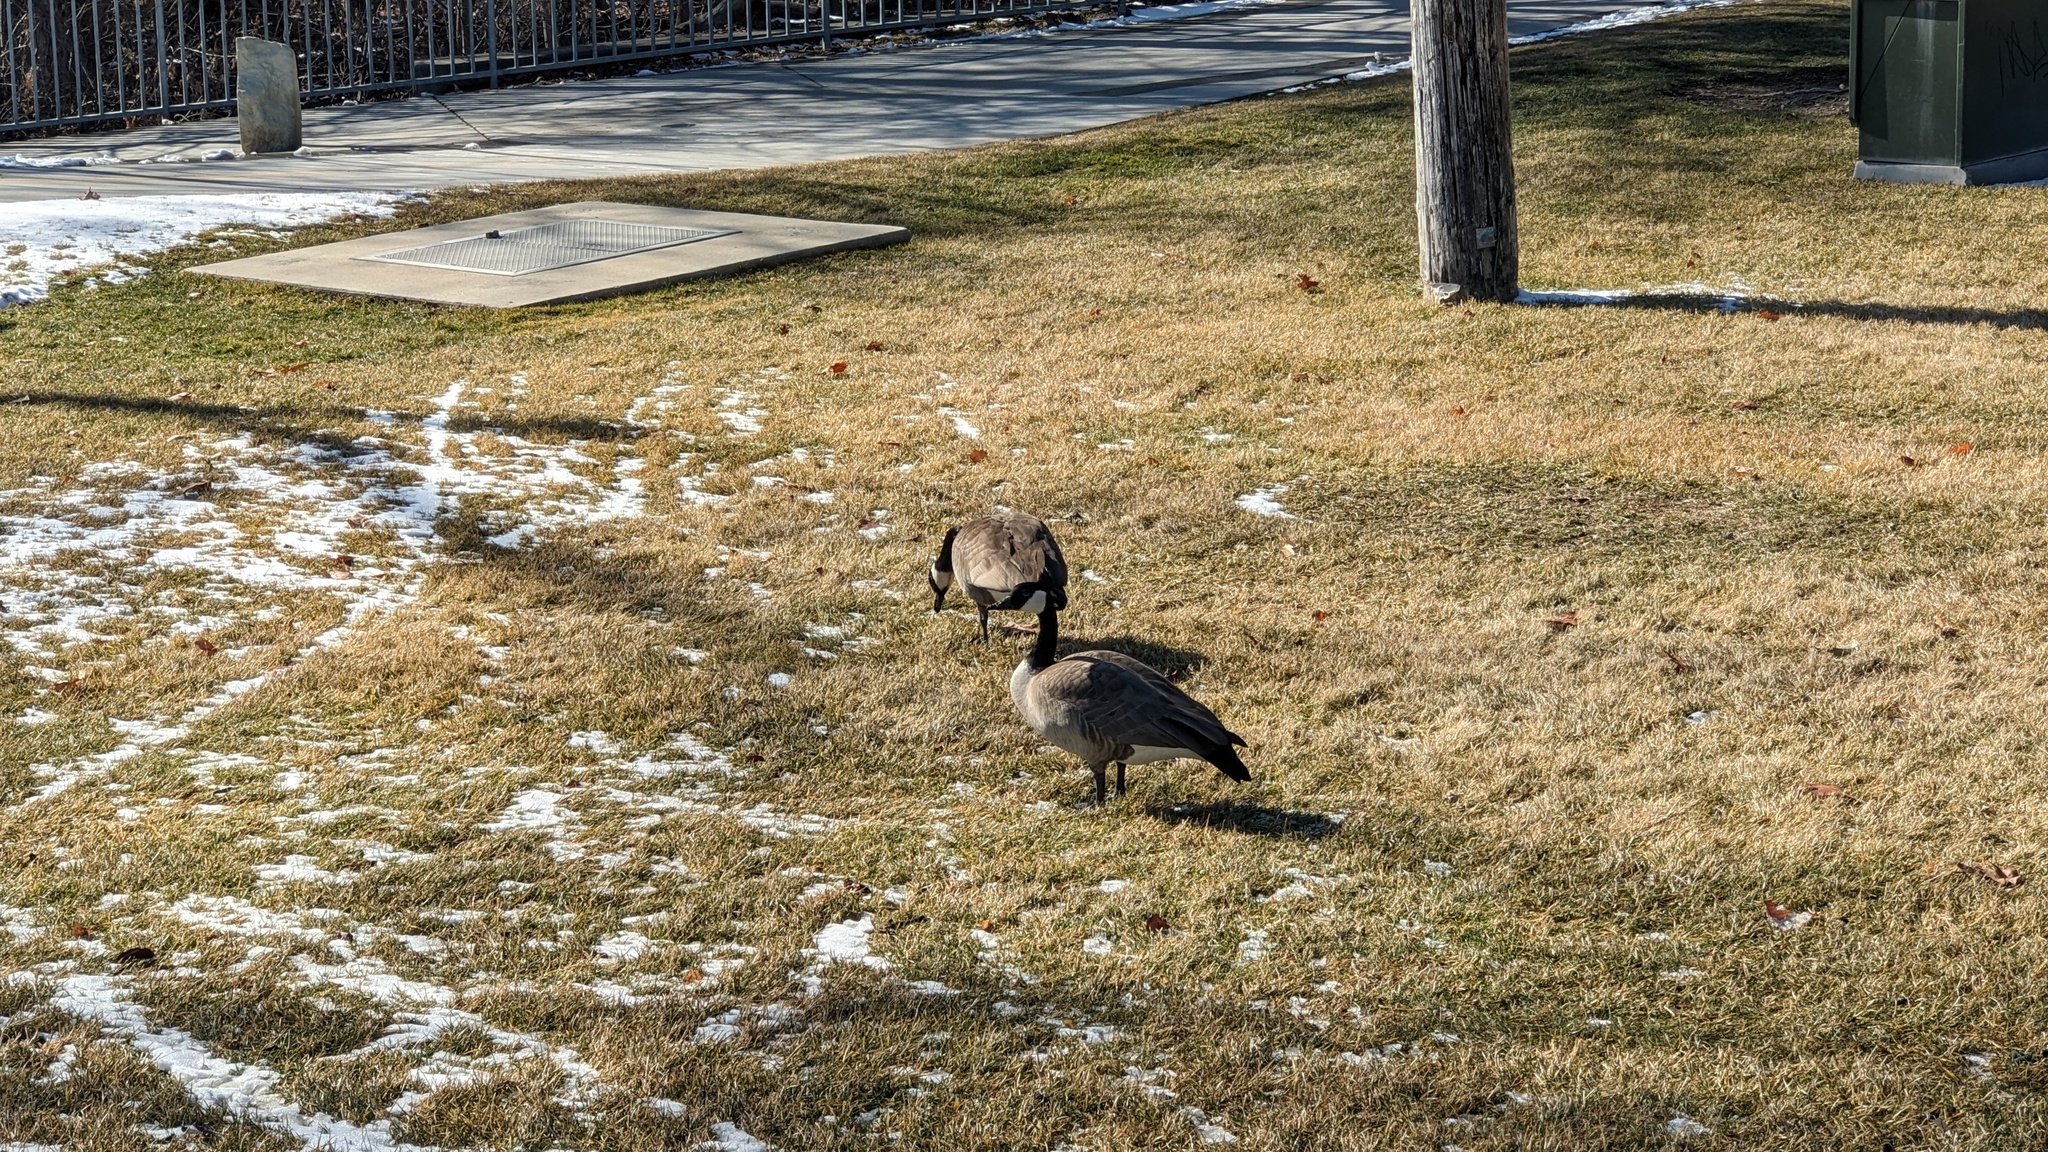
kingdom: Animalia
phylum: Chordata
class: Aves
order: Anseriformes
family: Anatidae
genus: Branta
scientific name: Branta canadensis
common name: Canada goose
